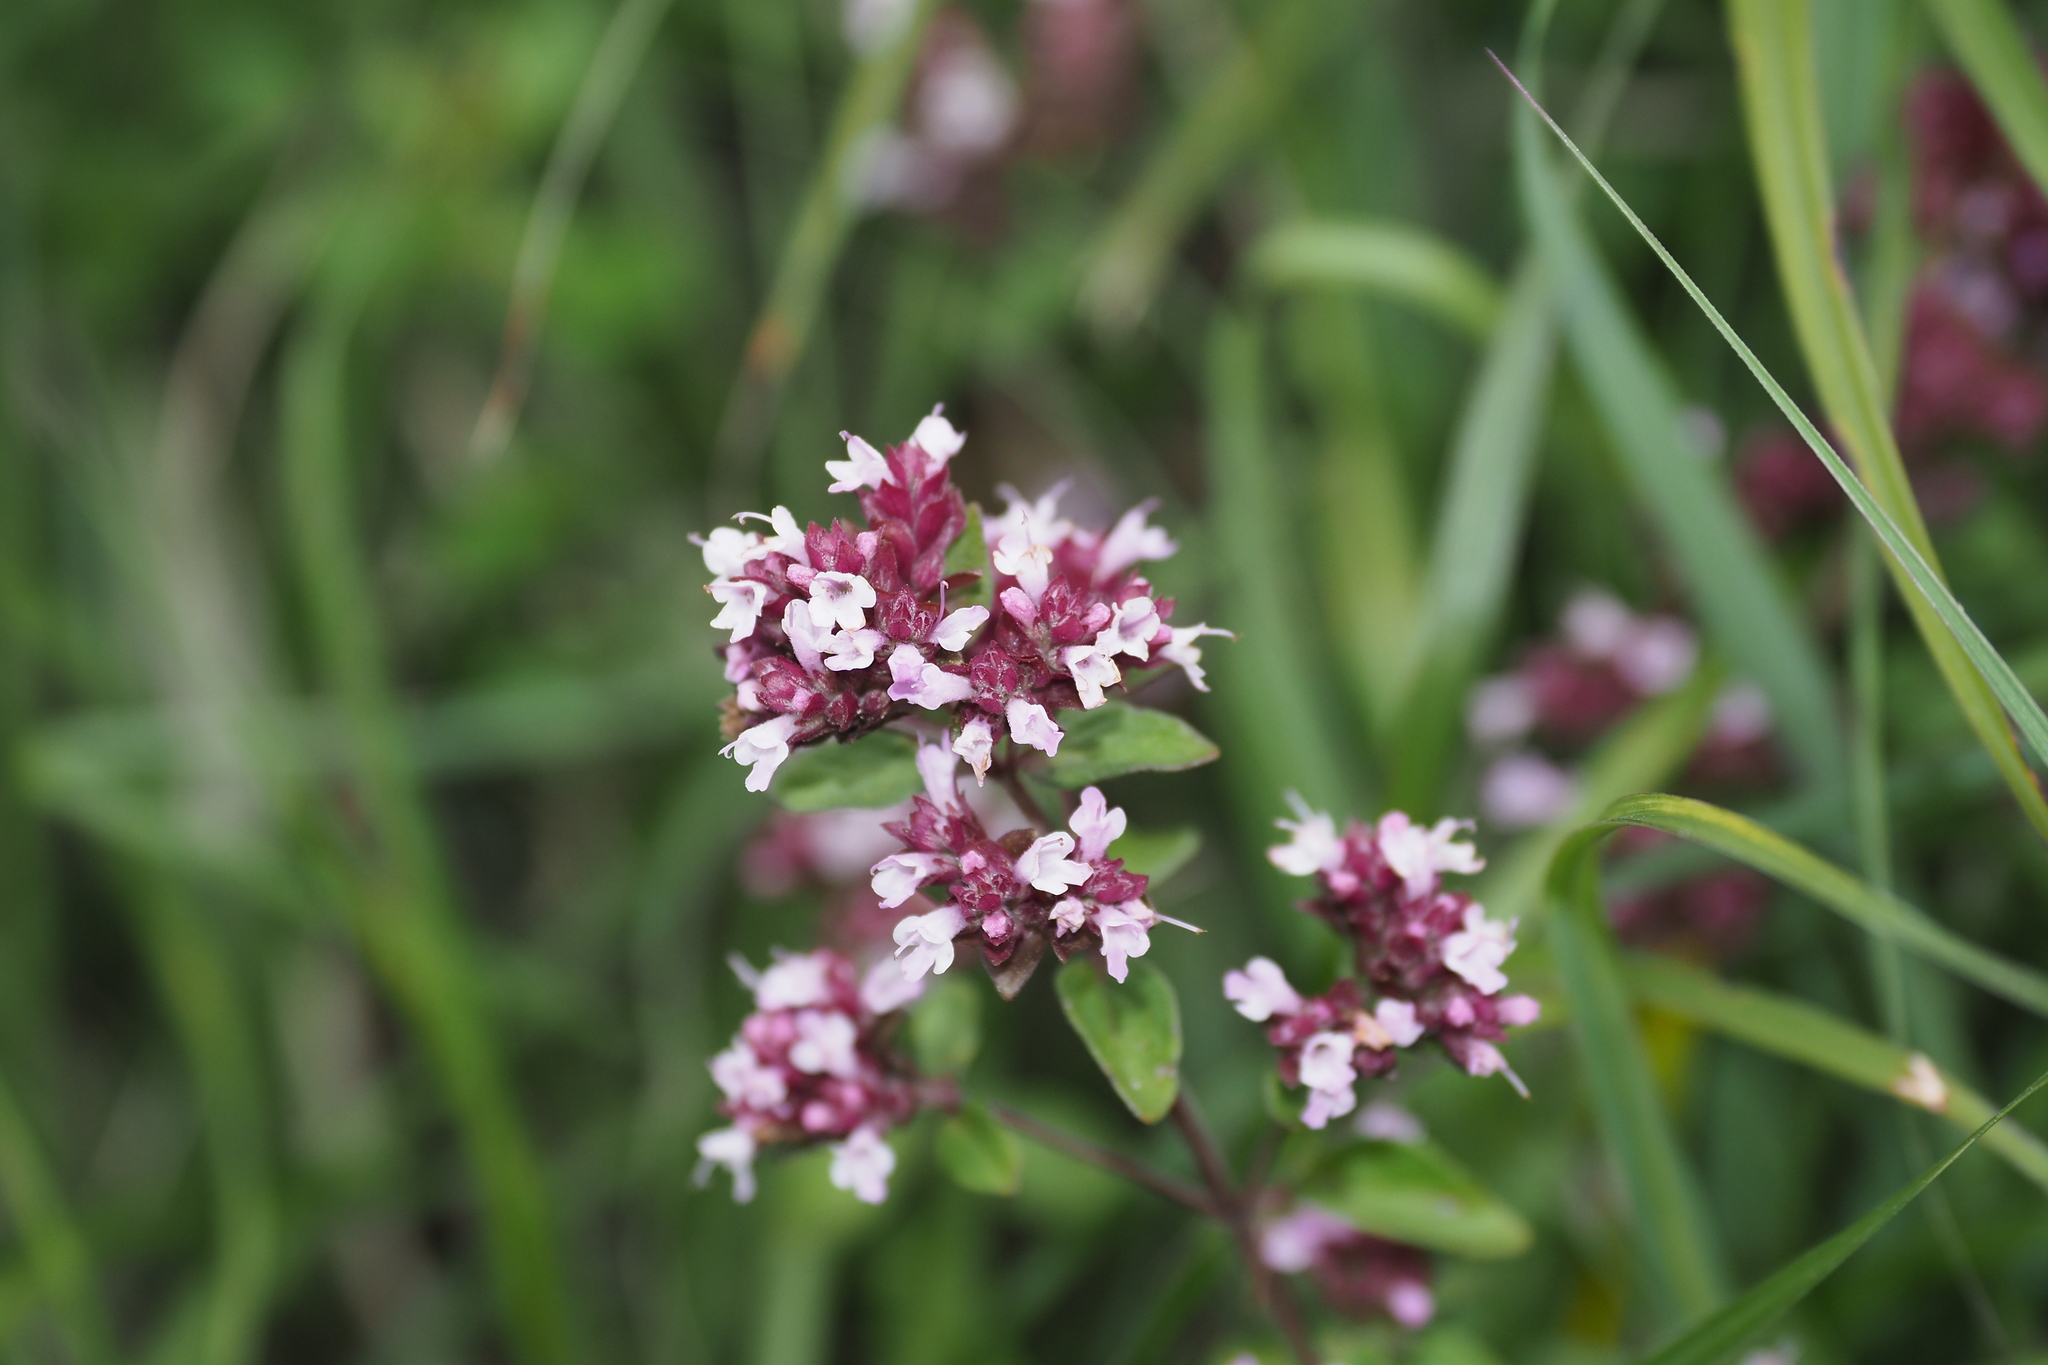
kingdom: Plantae
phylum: Tracheophyta
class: Magnoliopsida
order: Lamiales
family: Lamiaceae
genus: Origanum
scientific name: Origanum vulgare
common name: Wild marjoram
